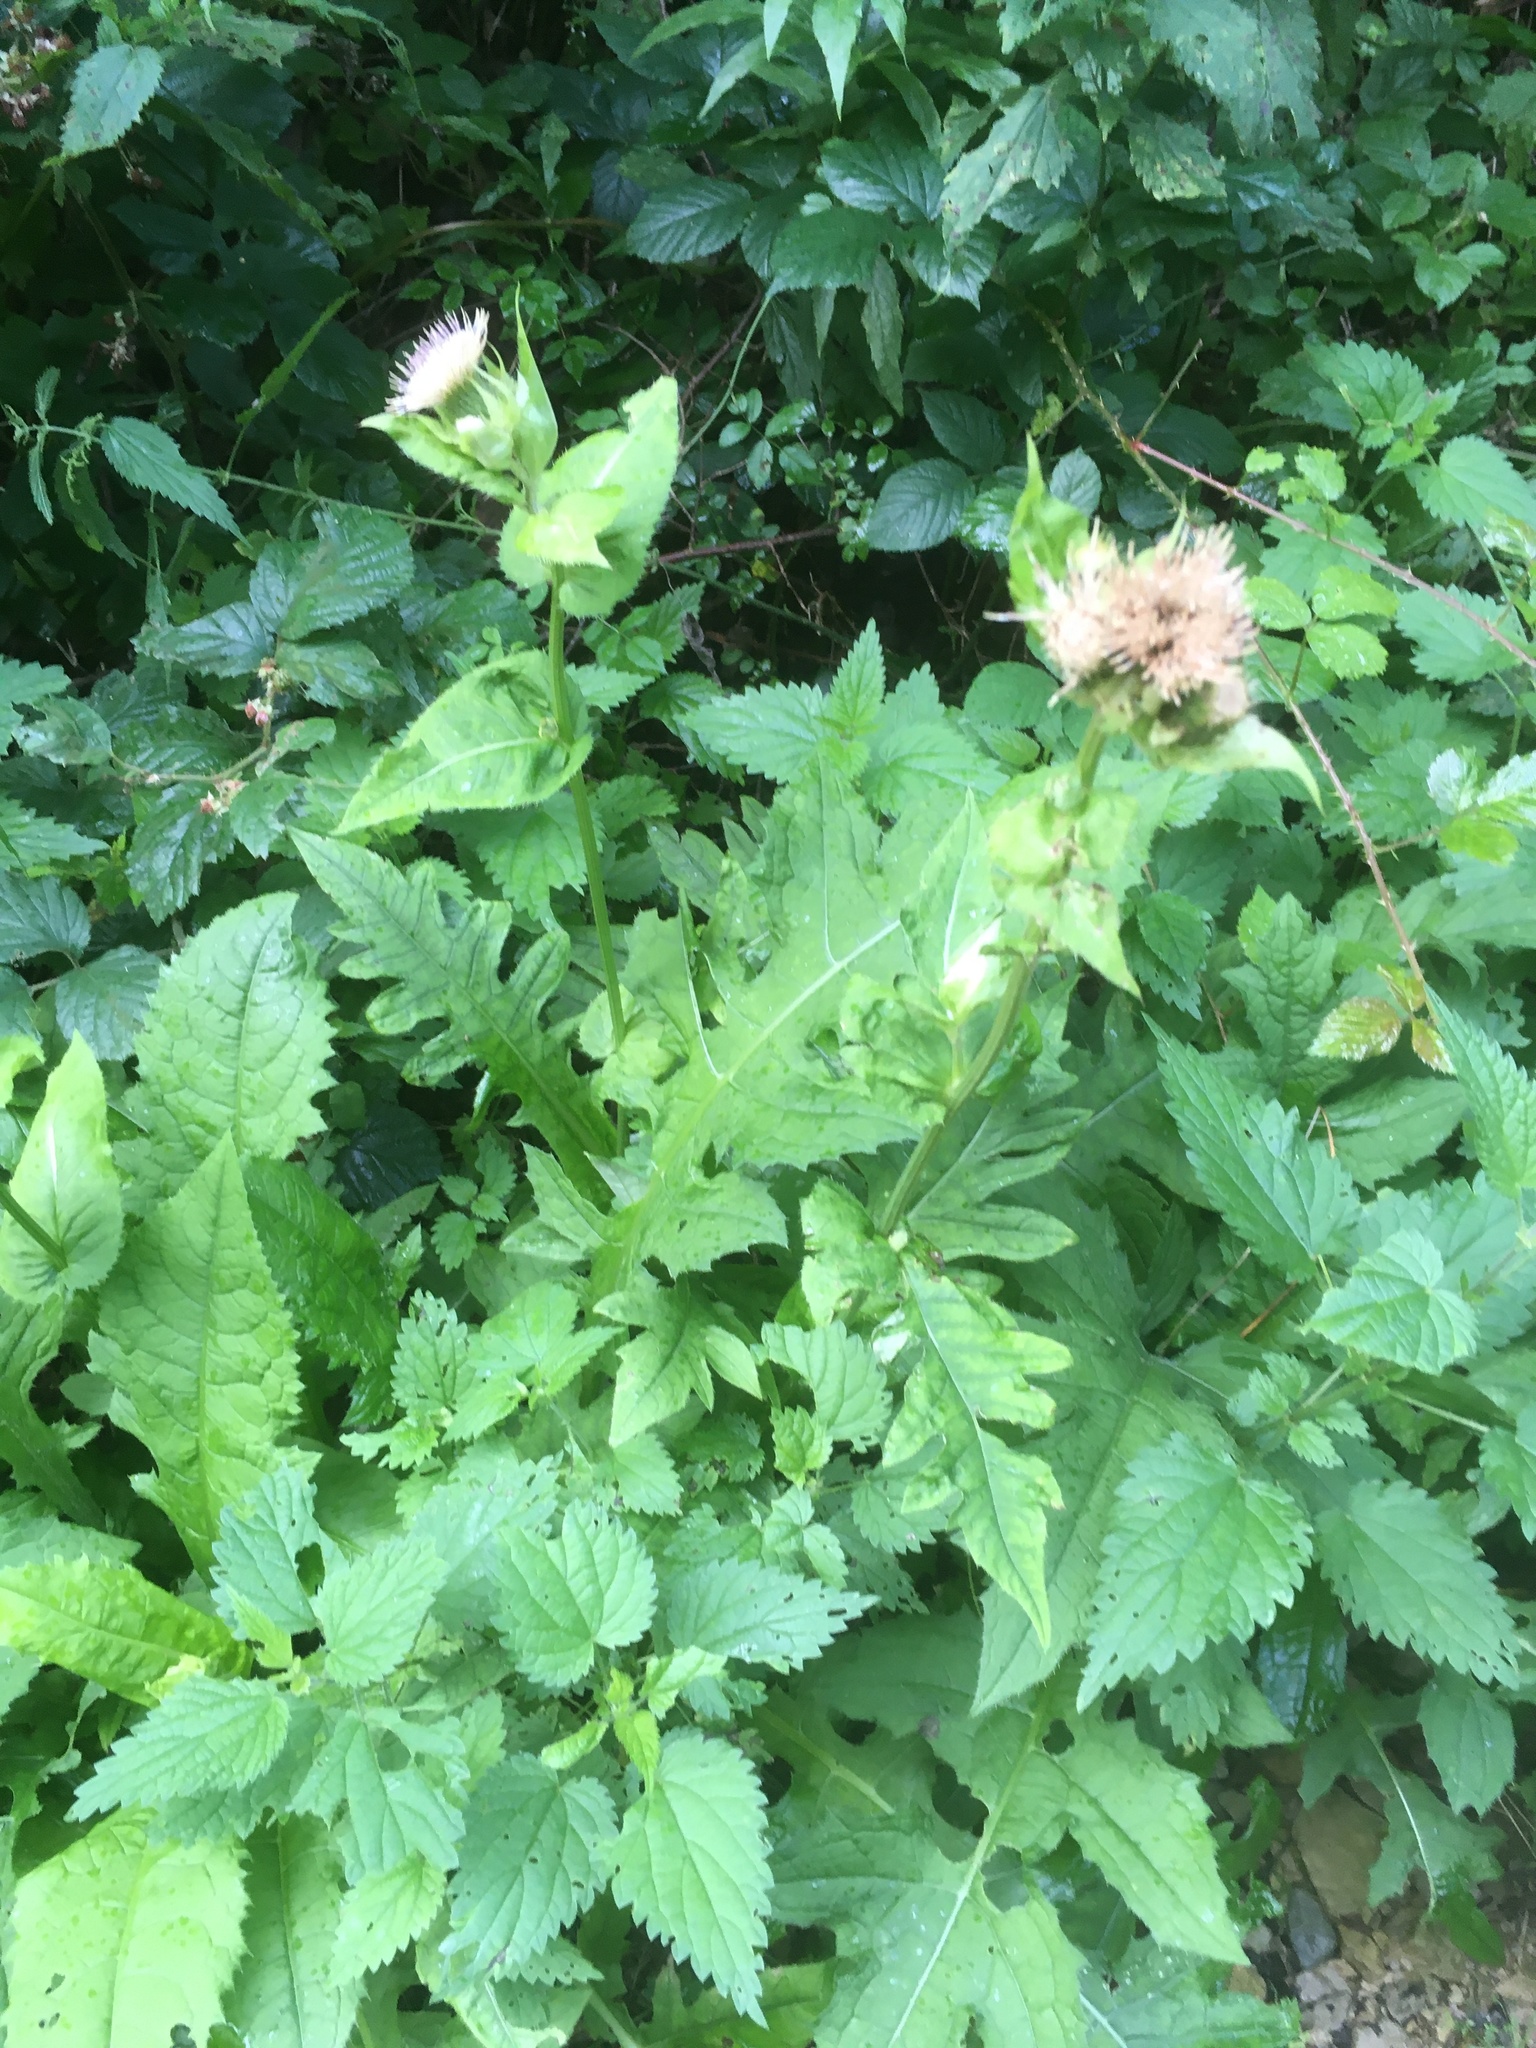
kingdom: Plantae
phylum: Tracheophyta
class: Magnoliopsida
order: Asterales
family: Asteraceae
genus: Cirsium
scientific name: Cirsium oleraceum
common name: Cabbage thistle
